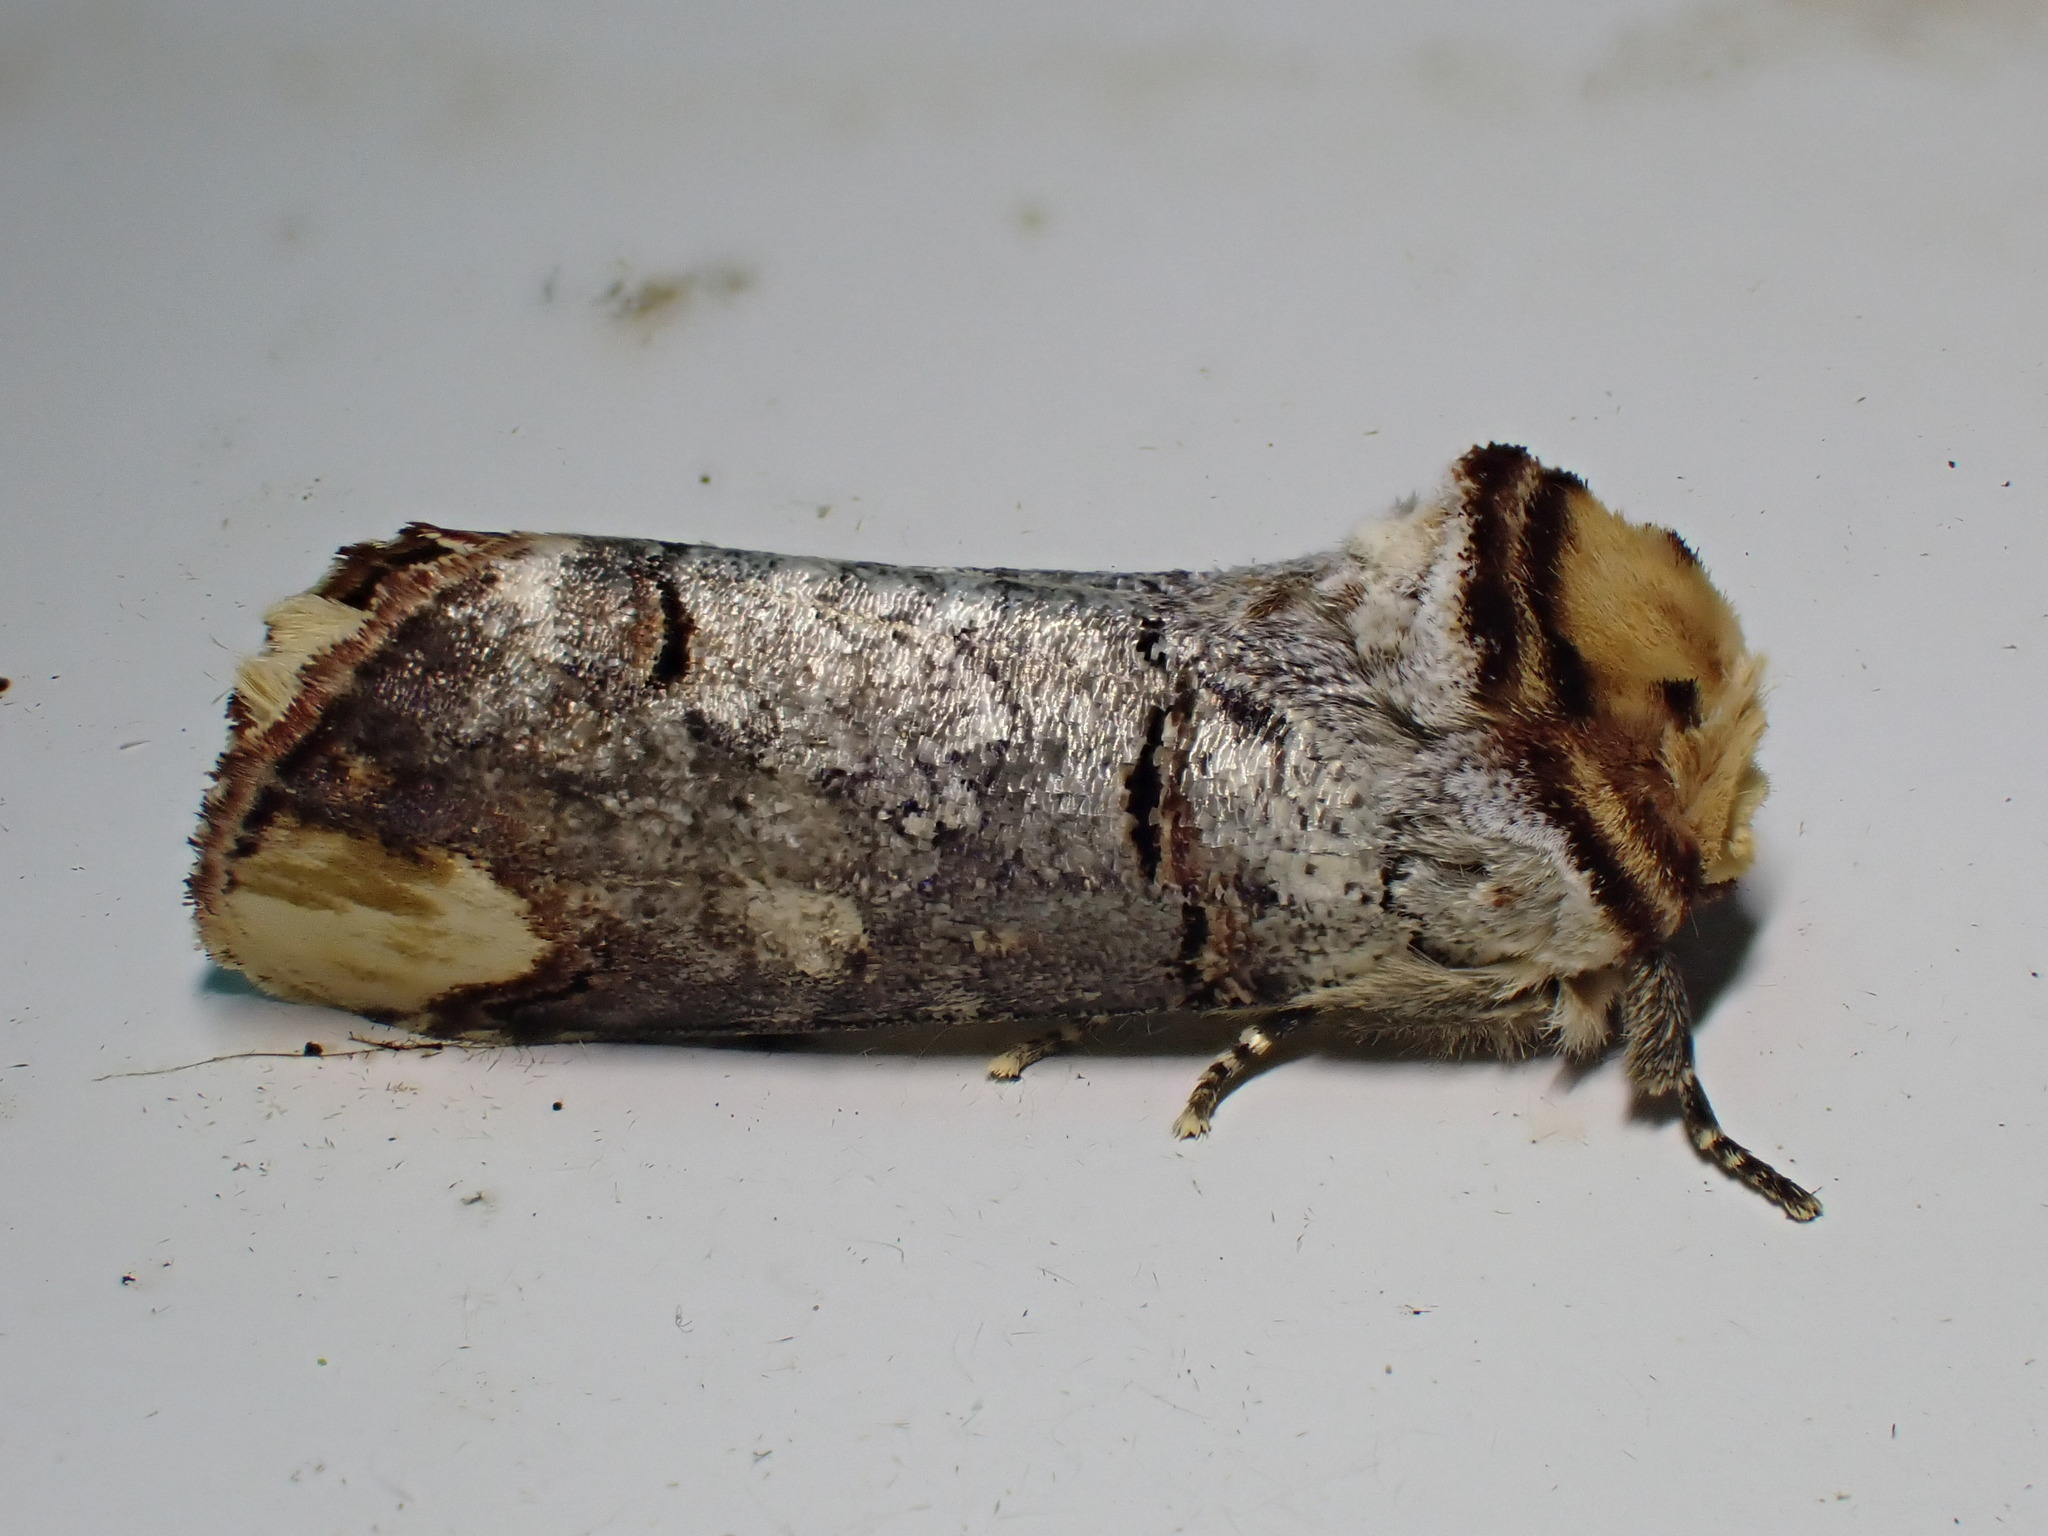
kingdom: Animalia
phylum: Arthropoda
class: Insecta
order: Lepidoptera
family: Notodontidae
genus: Phalera
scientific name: Phalera bucephala
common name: Buff-tip
